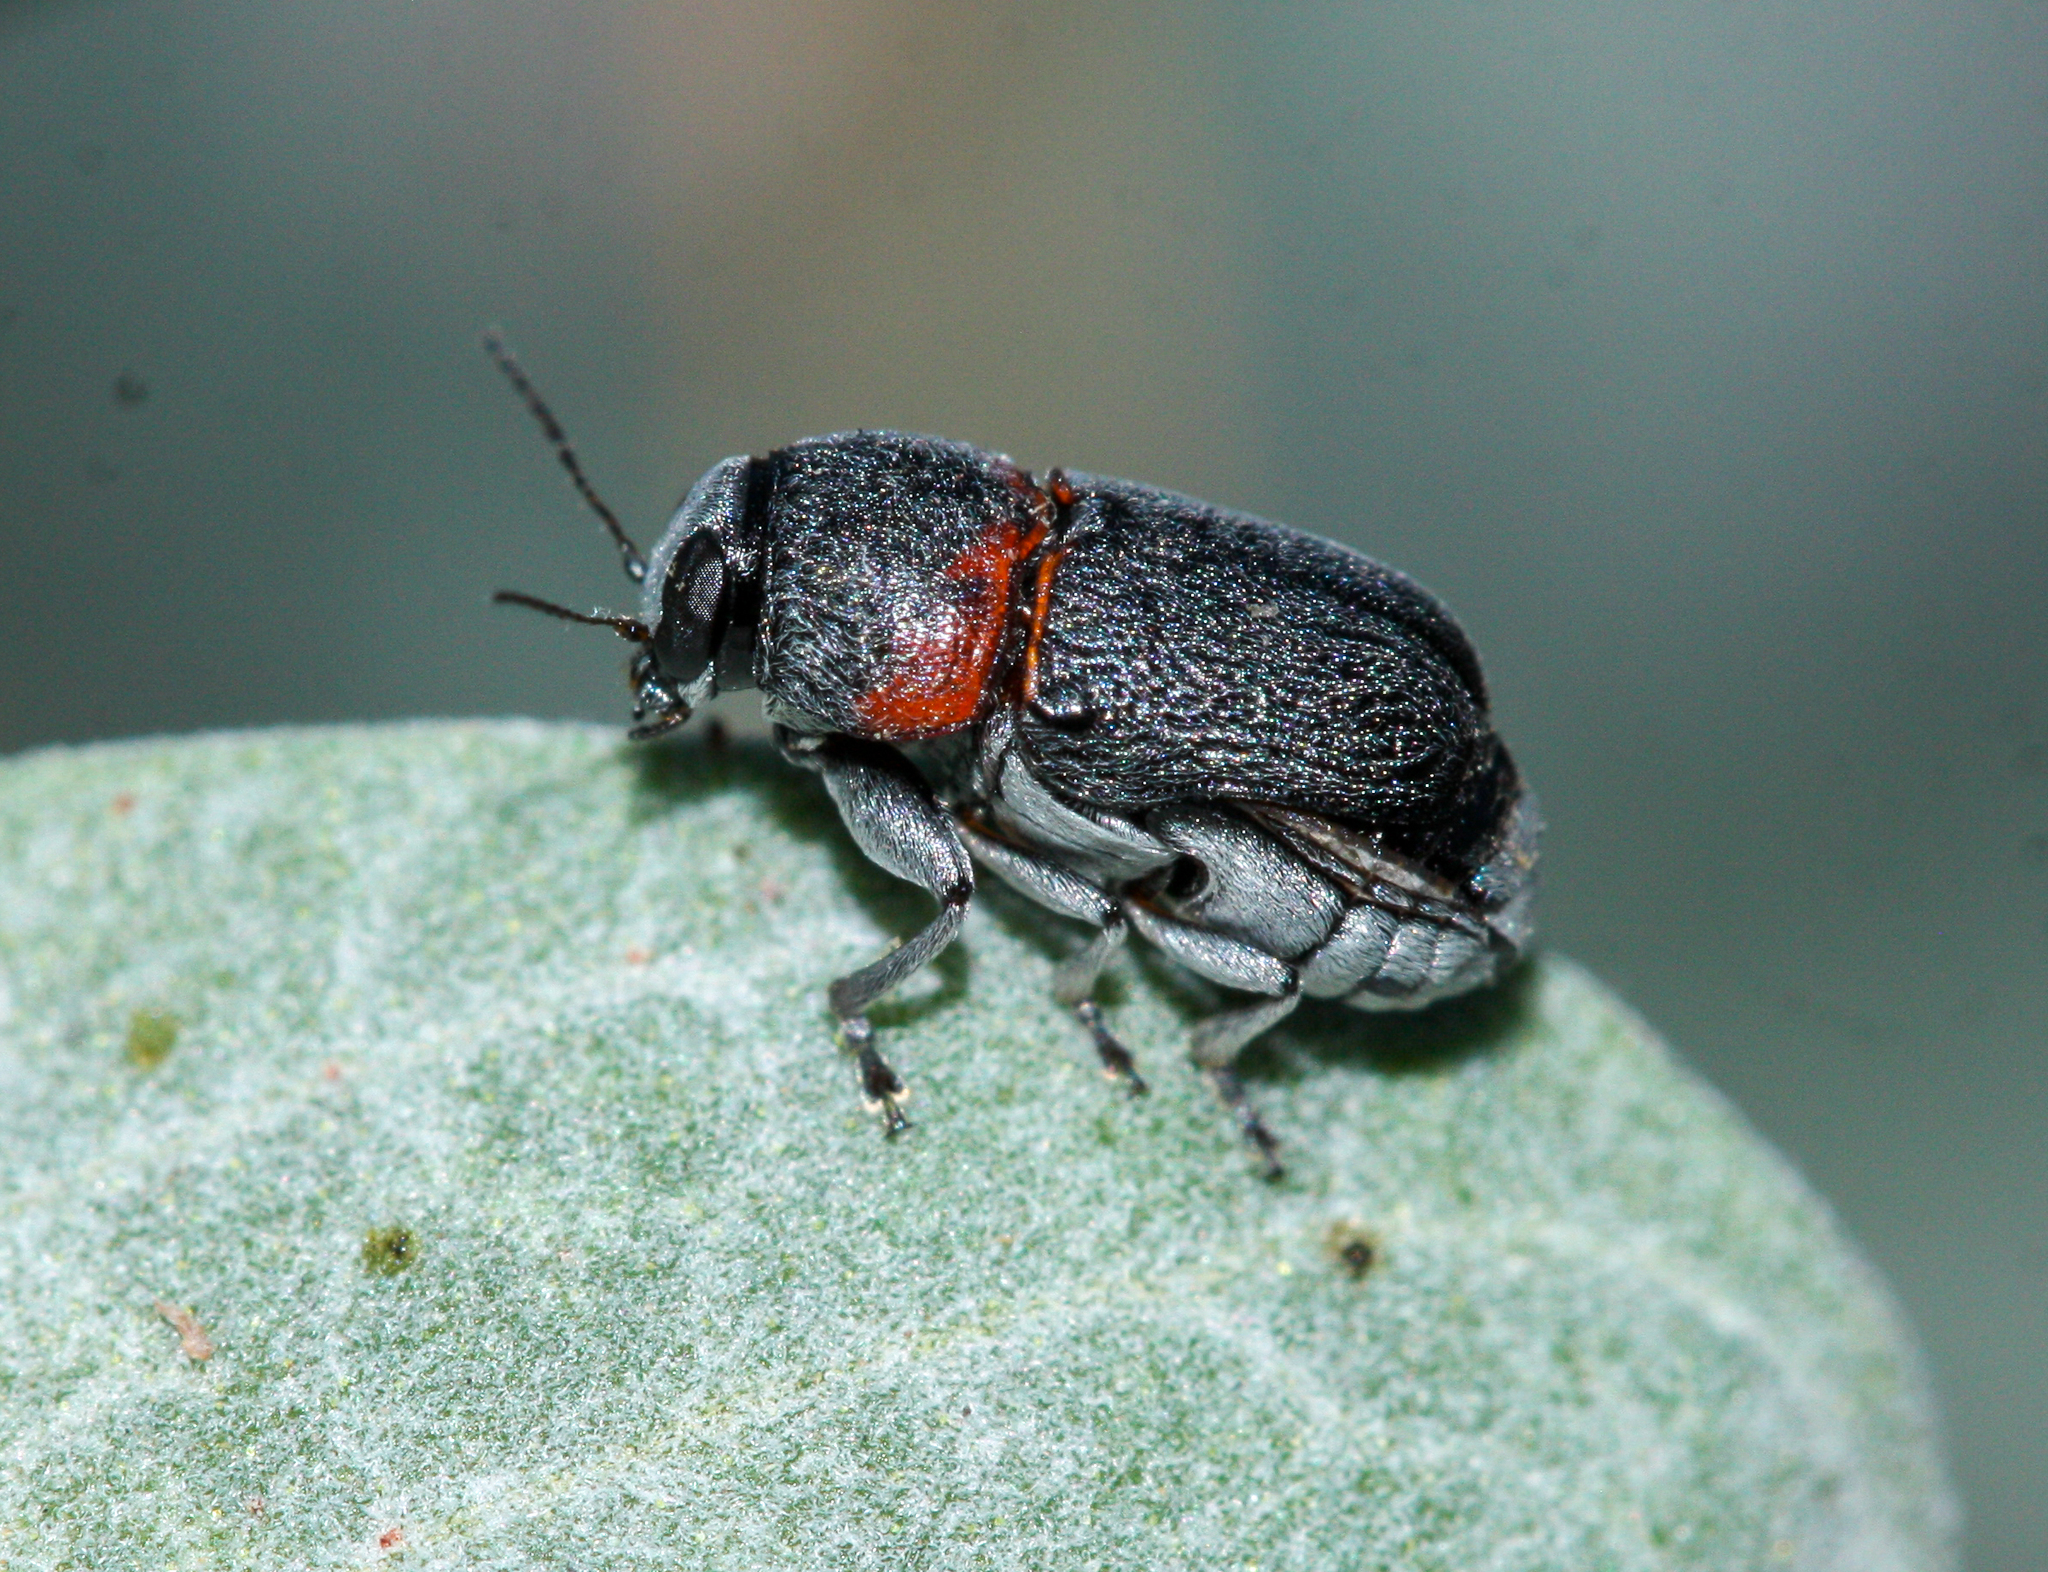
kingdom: Animalia
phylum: Arthropoda
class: Insecta
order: Coleoptera
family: Chrysomelidae
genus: Pachybrachis
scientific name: Pachybrachis thoracicus
